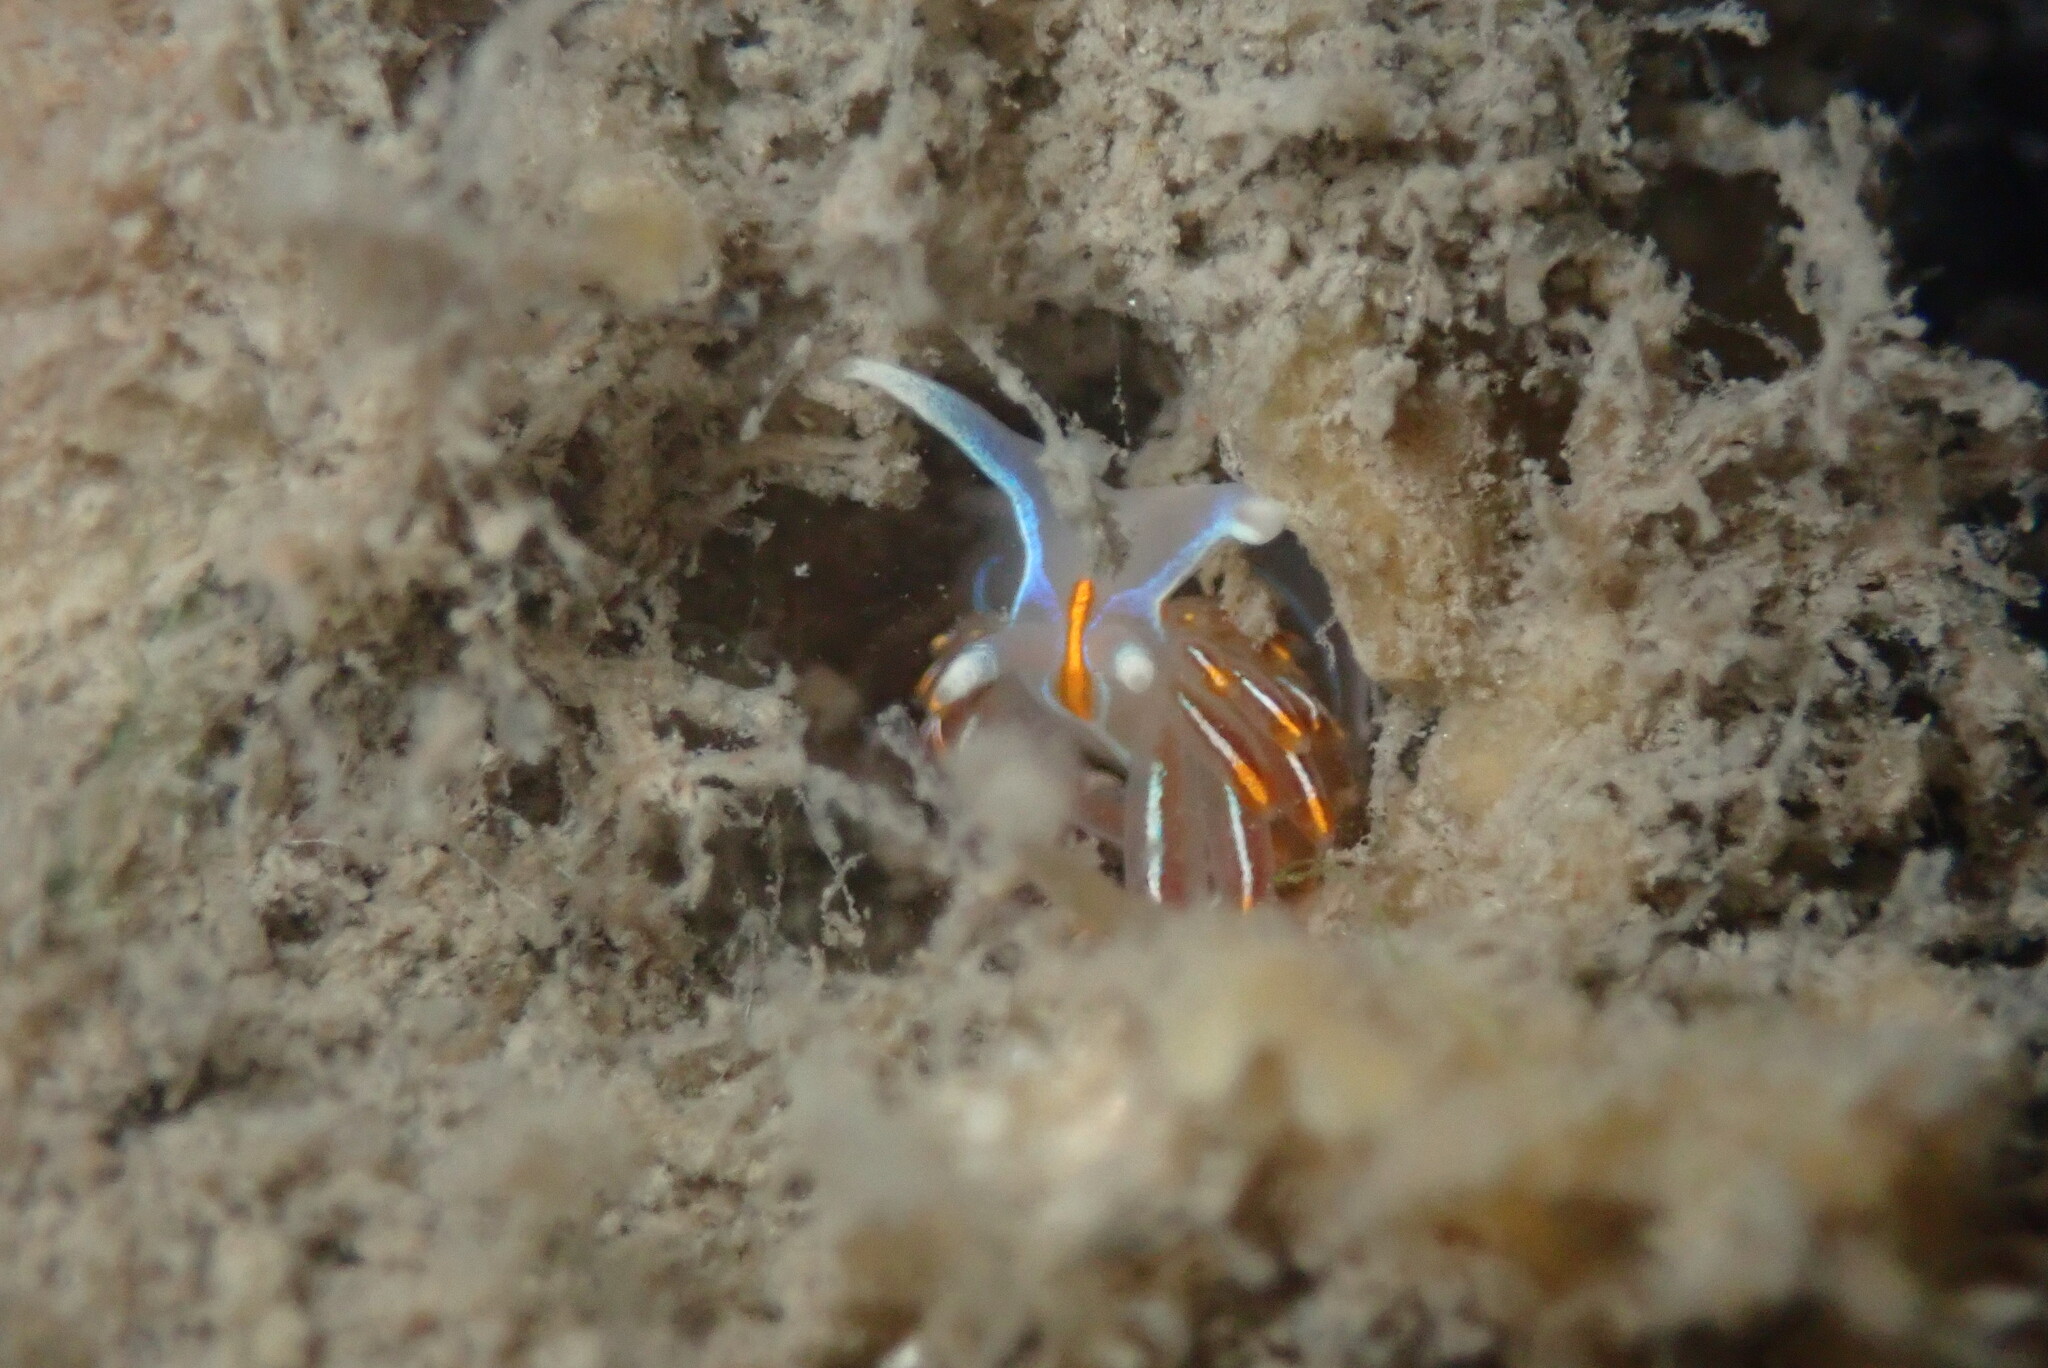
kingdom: Animalia
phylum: Mollusca
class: Gastropoda
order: Nudibranchia
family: Myrrhinidae
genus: Hermissenda
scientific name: Hermissenda crassicornis
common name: Hermissenda
